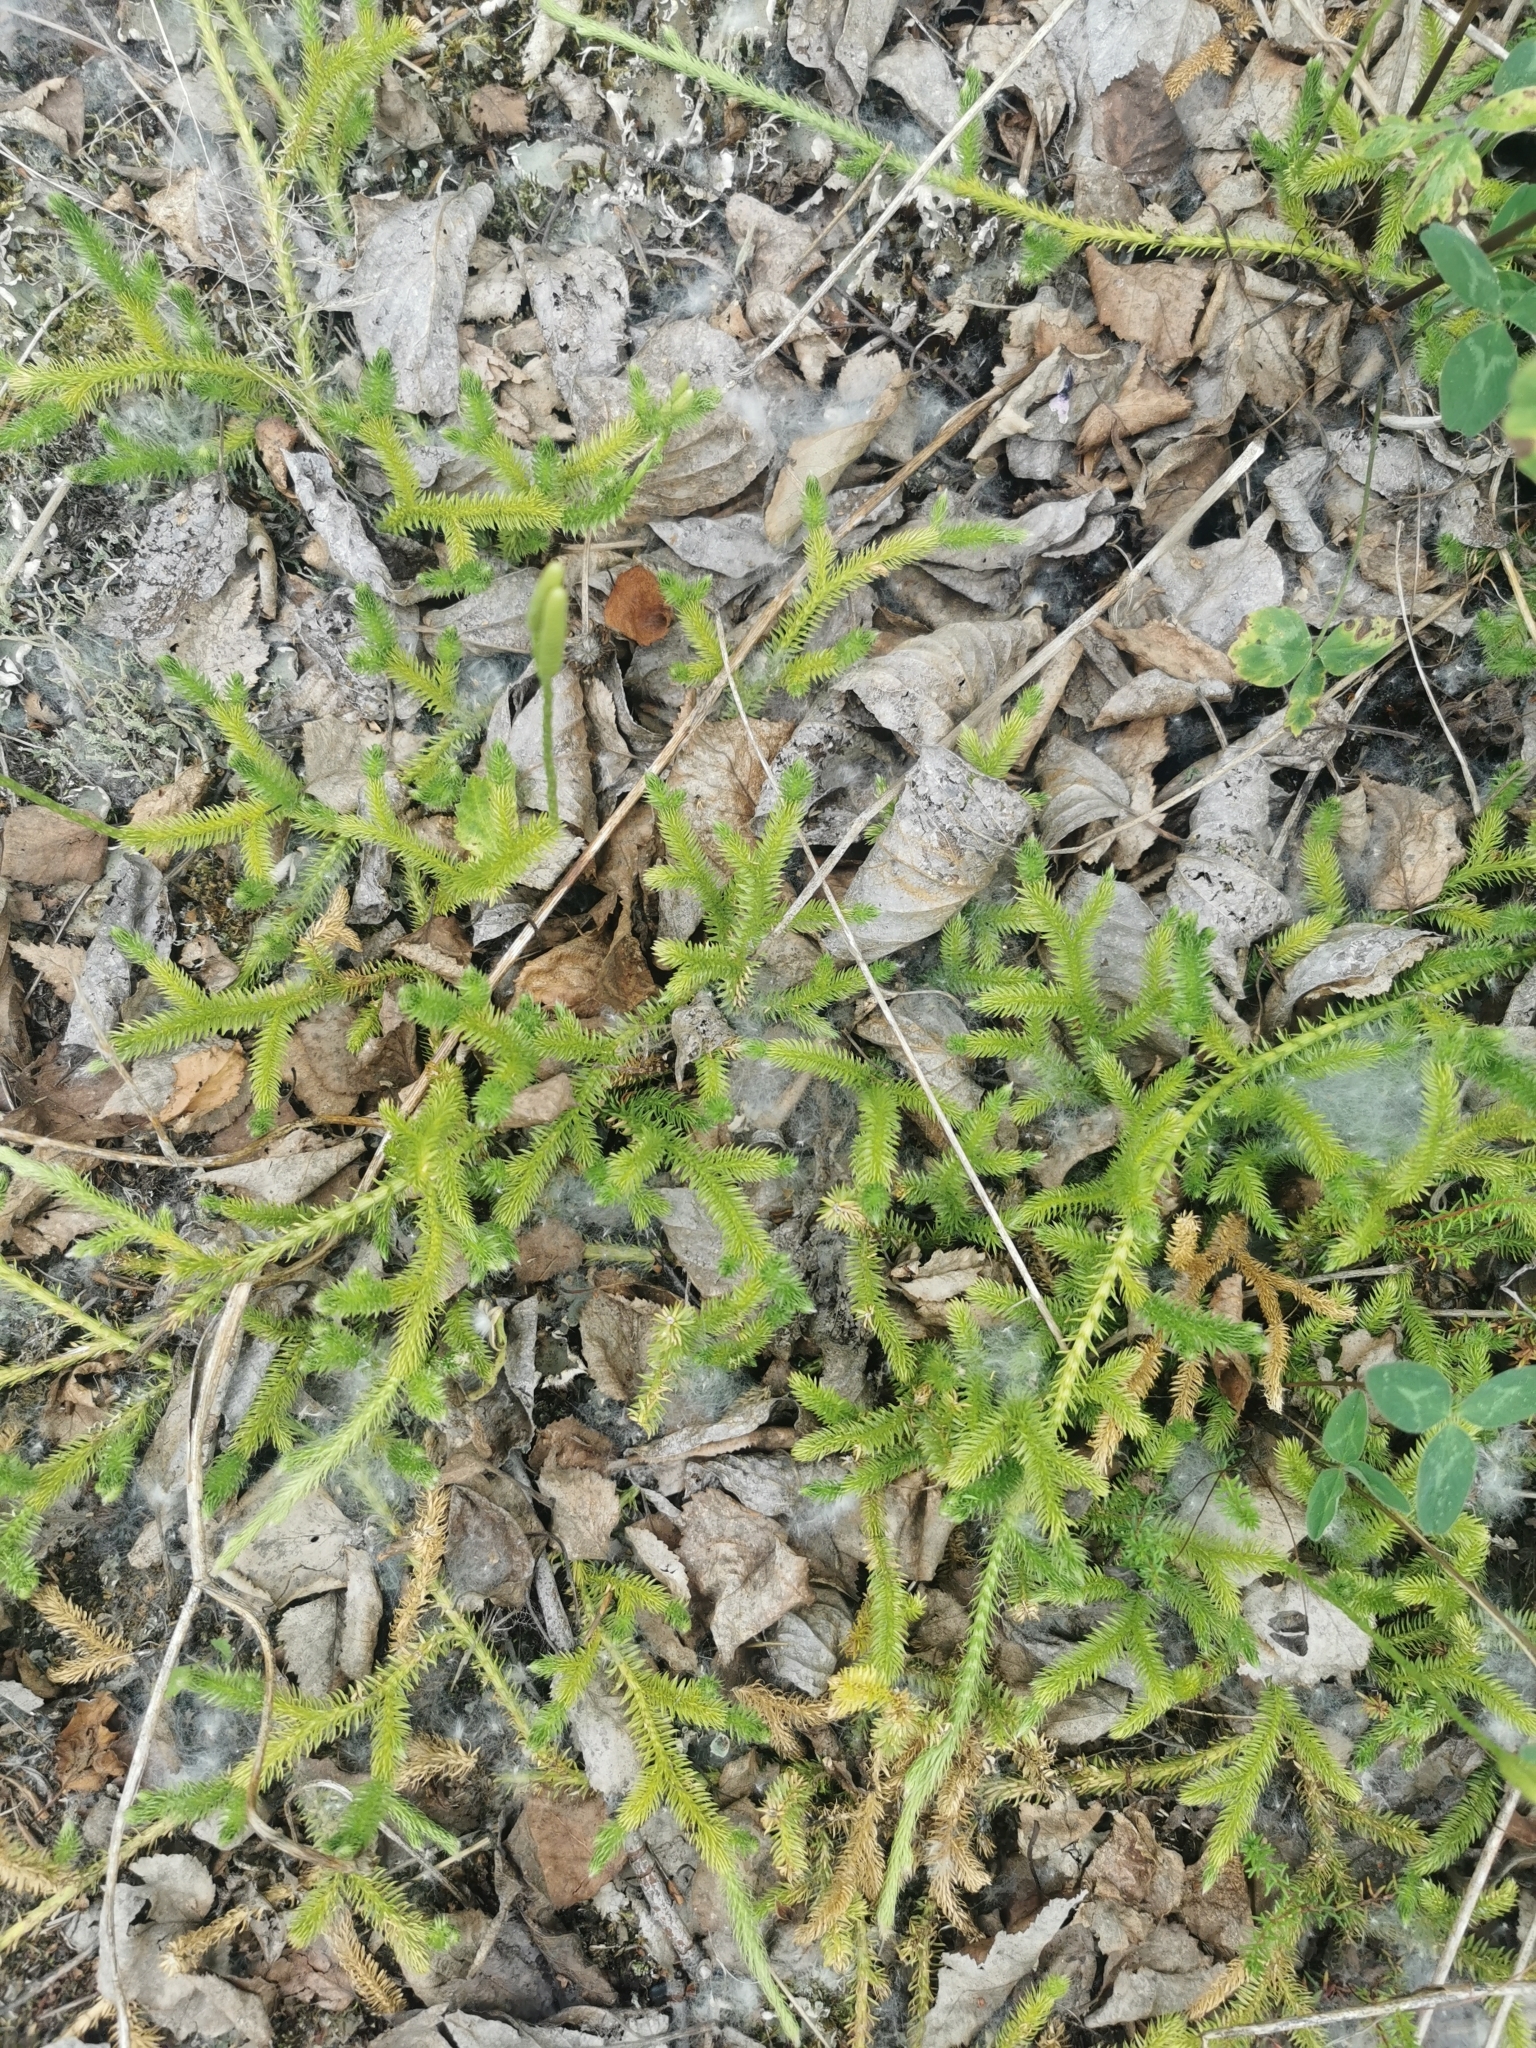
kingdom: Plantae
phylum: Tracheophyta
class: Lycopodiopsida
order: Lycopodiales
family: Lycopodiaceae
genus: Lycopodium
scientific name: Lycopodium clavatum
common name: Stag's-horn clubmoss
